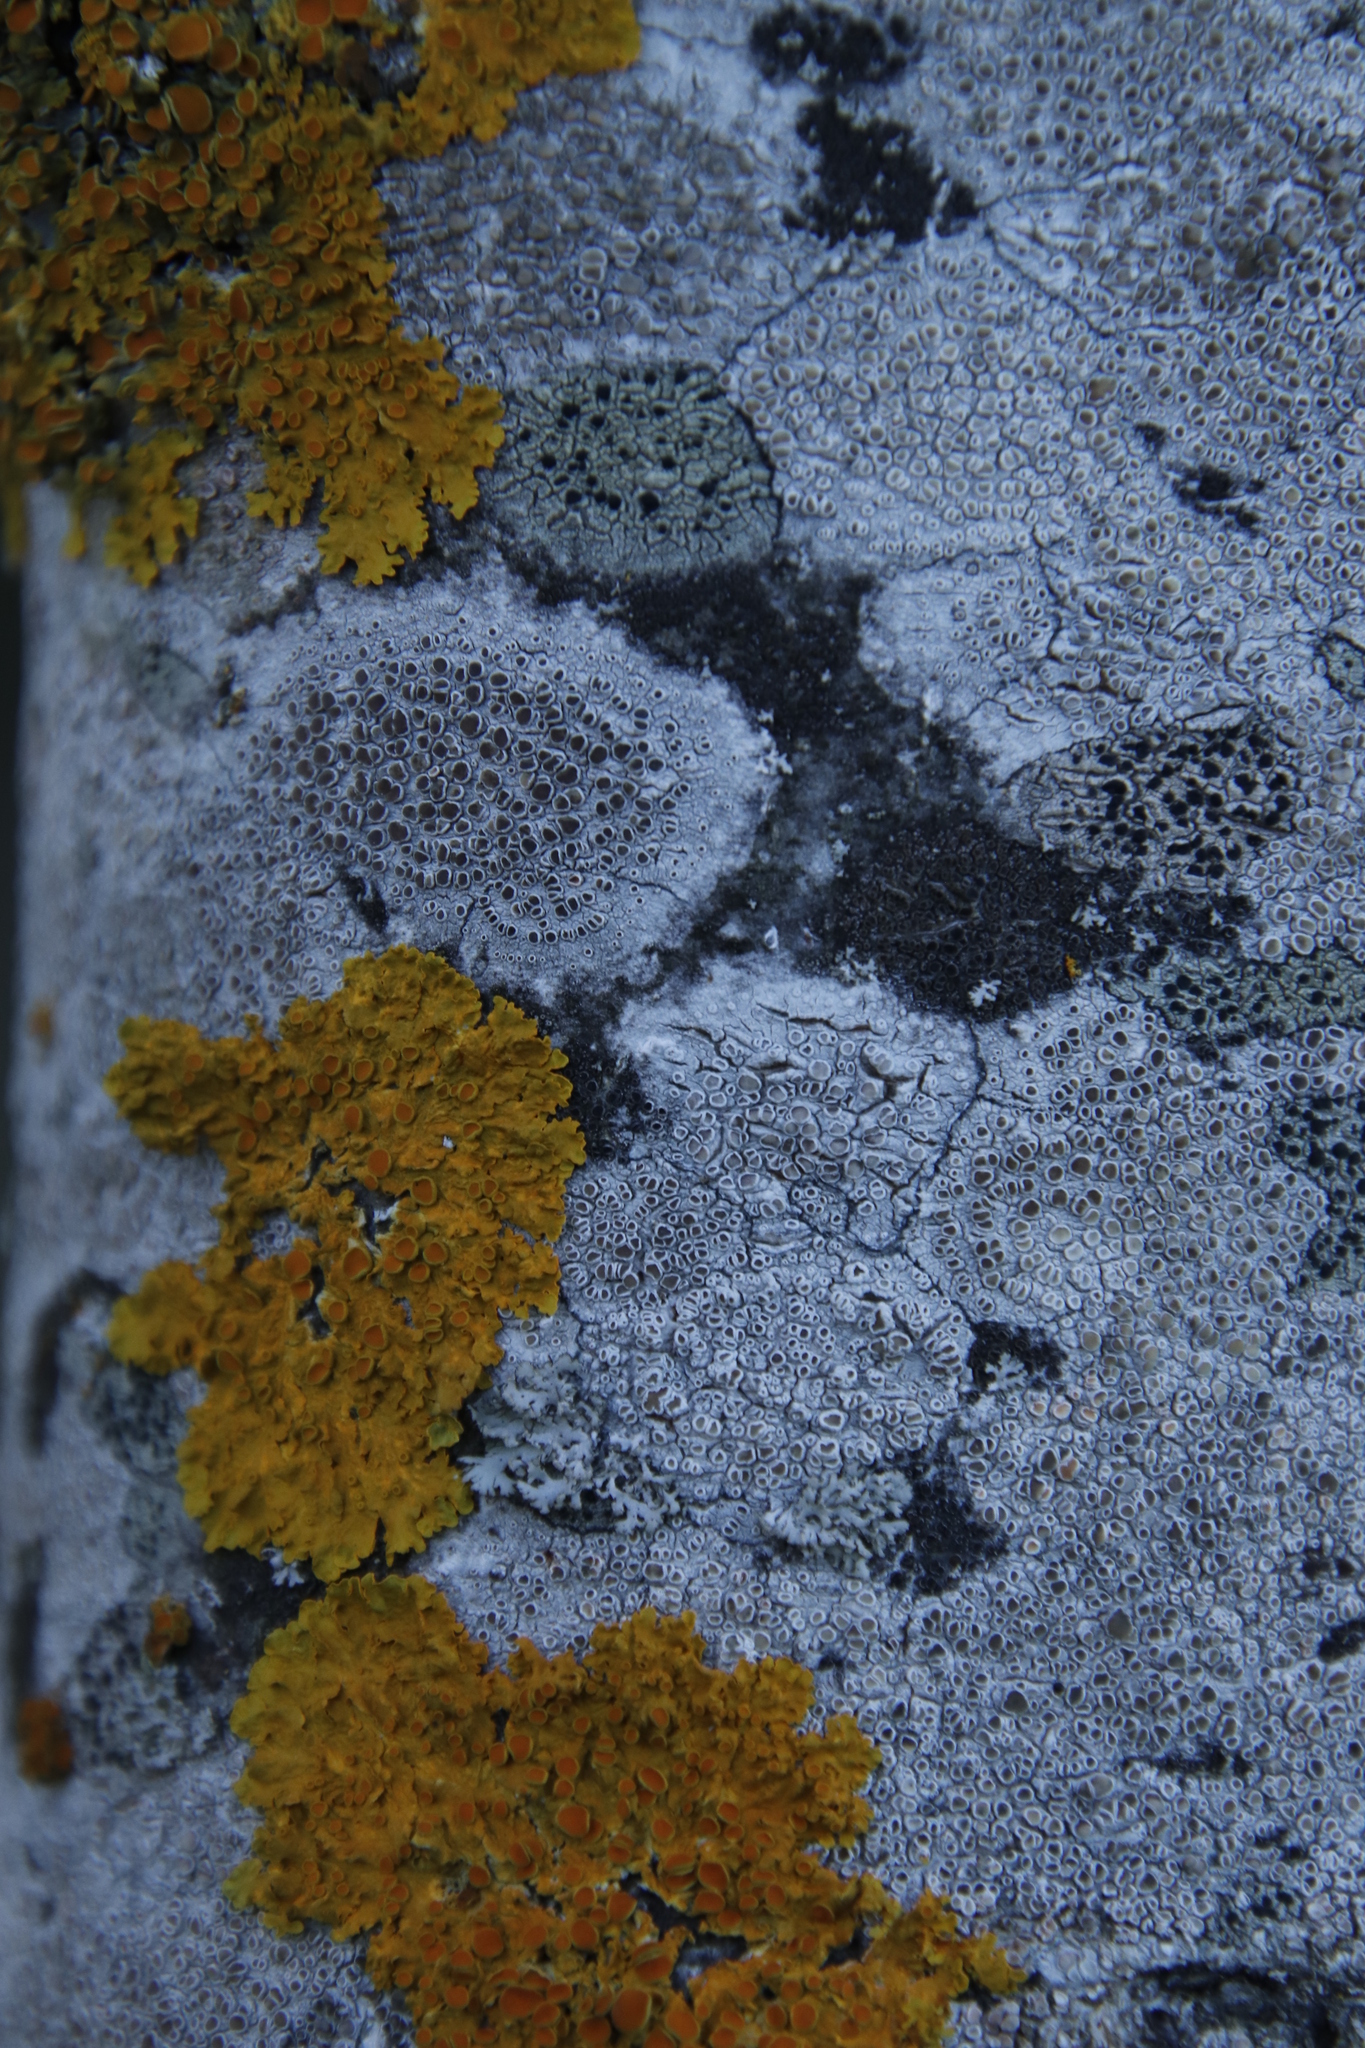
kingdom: Fungi
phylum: Ascomycota
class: Lecanoromycetes
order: Lecanorales
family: Lecanoraceae
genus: Lecanora
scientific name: Lecanora chlarotera
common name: Brown rim-lichen
